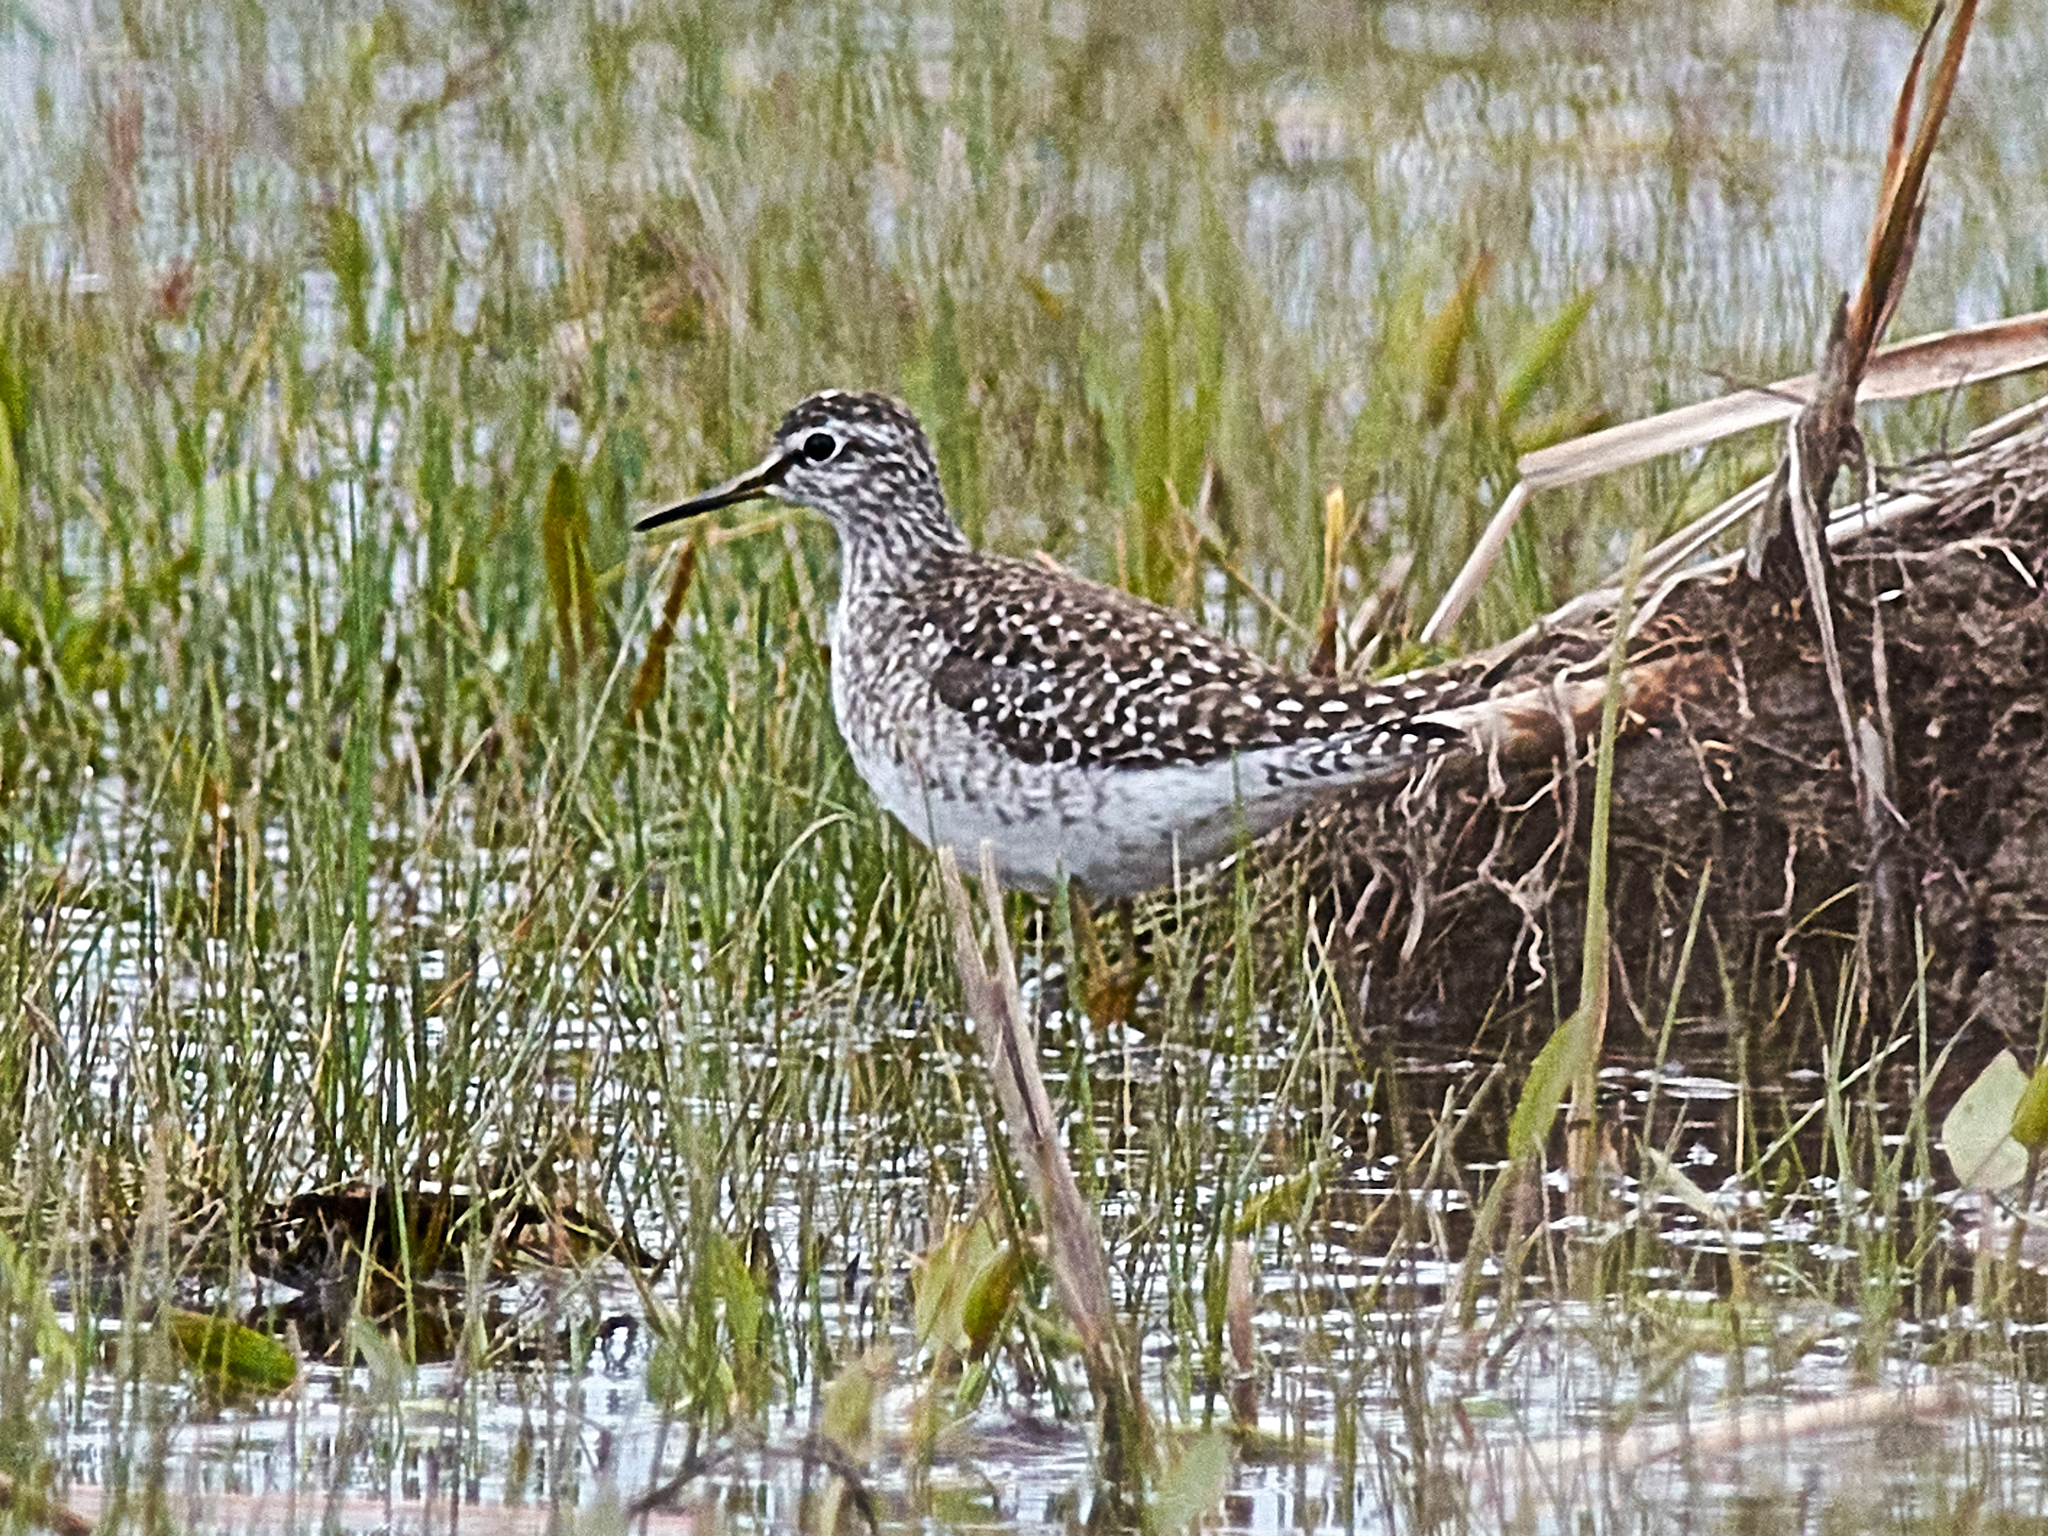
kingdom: Animalia
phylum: Chordata
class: Aves
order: Charadriiformes
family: Scolopacidae
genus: Tringa
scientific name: Tringa glareola
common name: Wood sandpiper
